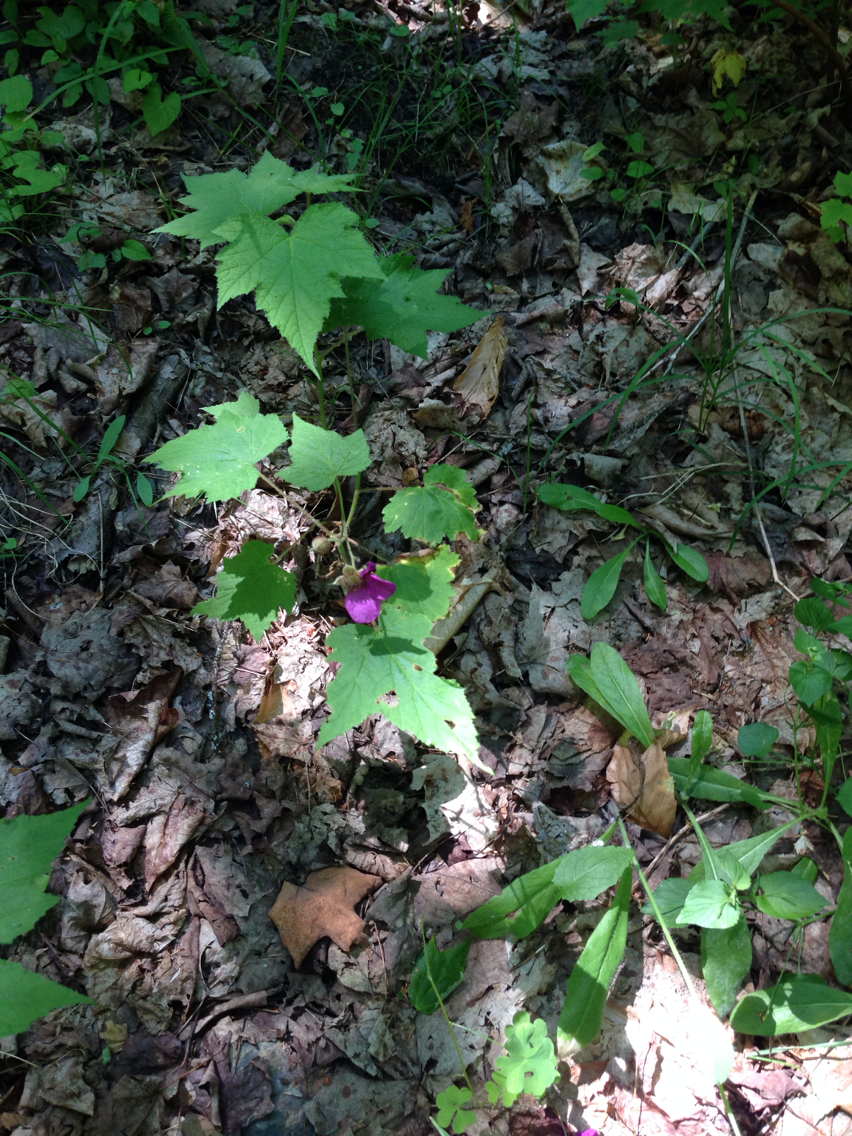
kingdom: Plantae
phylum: Tracheophyta
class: Magnoliopsida
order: Rosales
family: Rosaceae
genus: Rubus
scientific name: Rubus odoratus
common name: Purple-flowered raspberry
